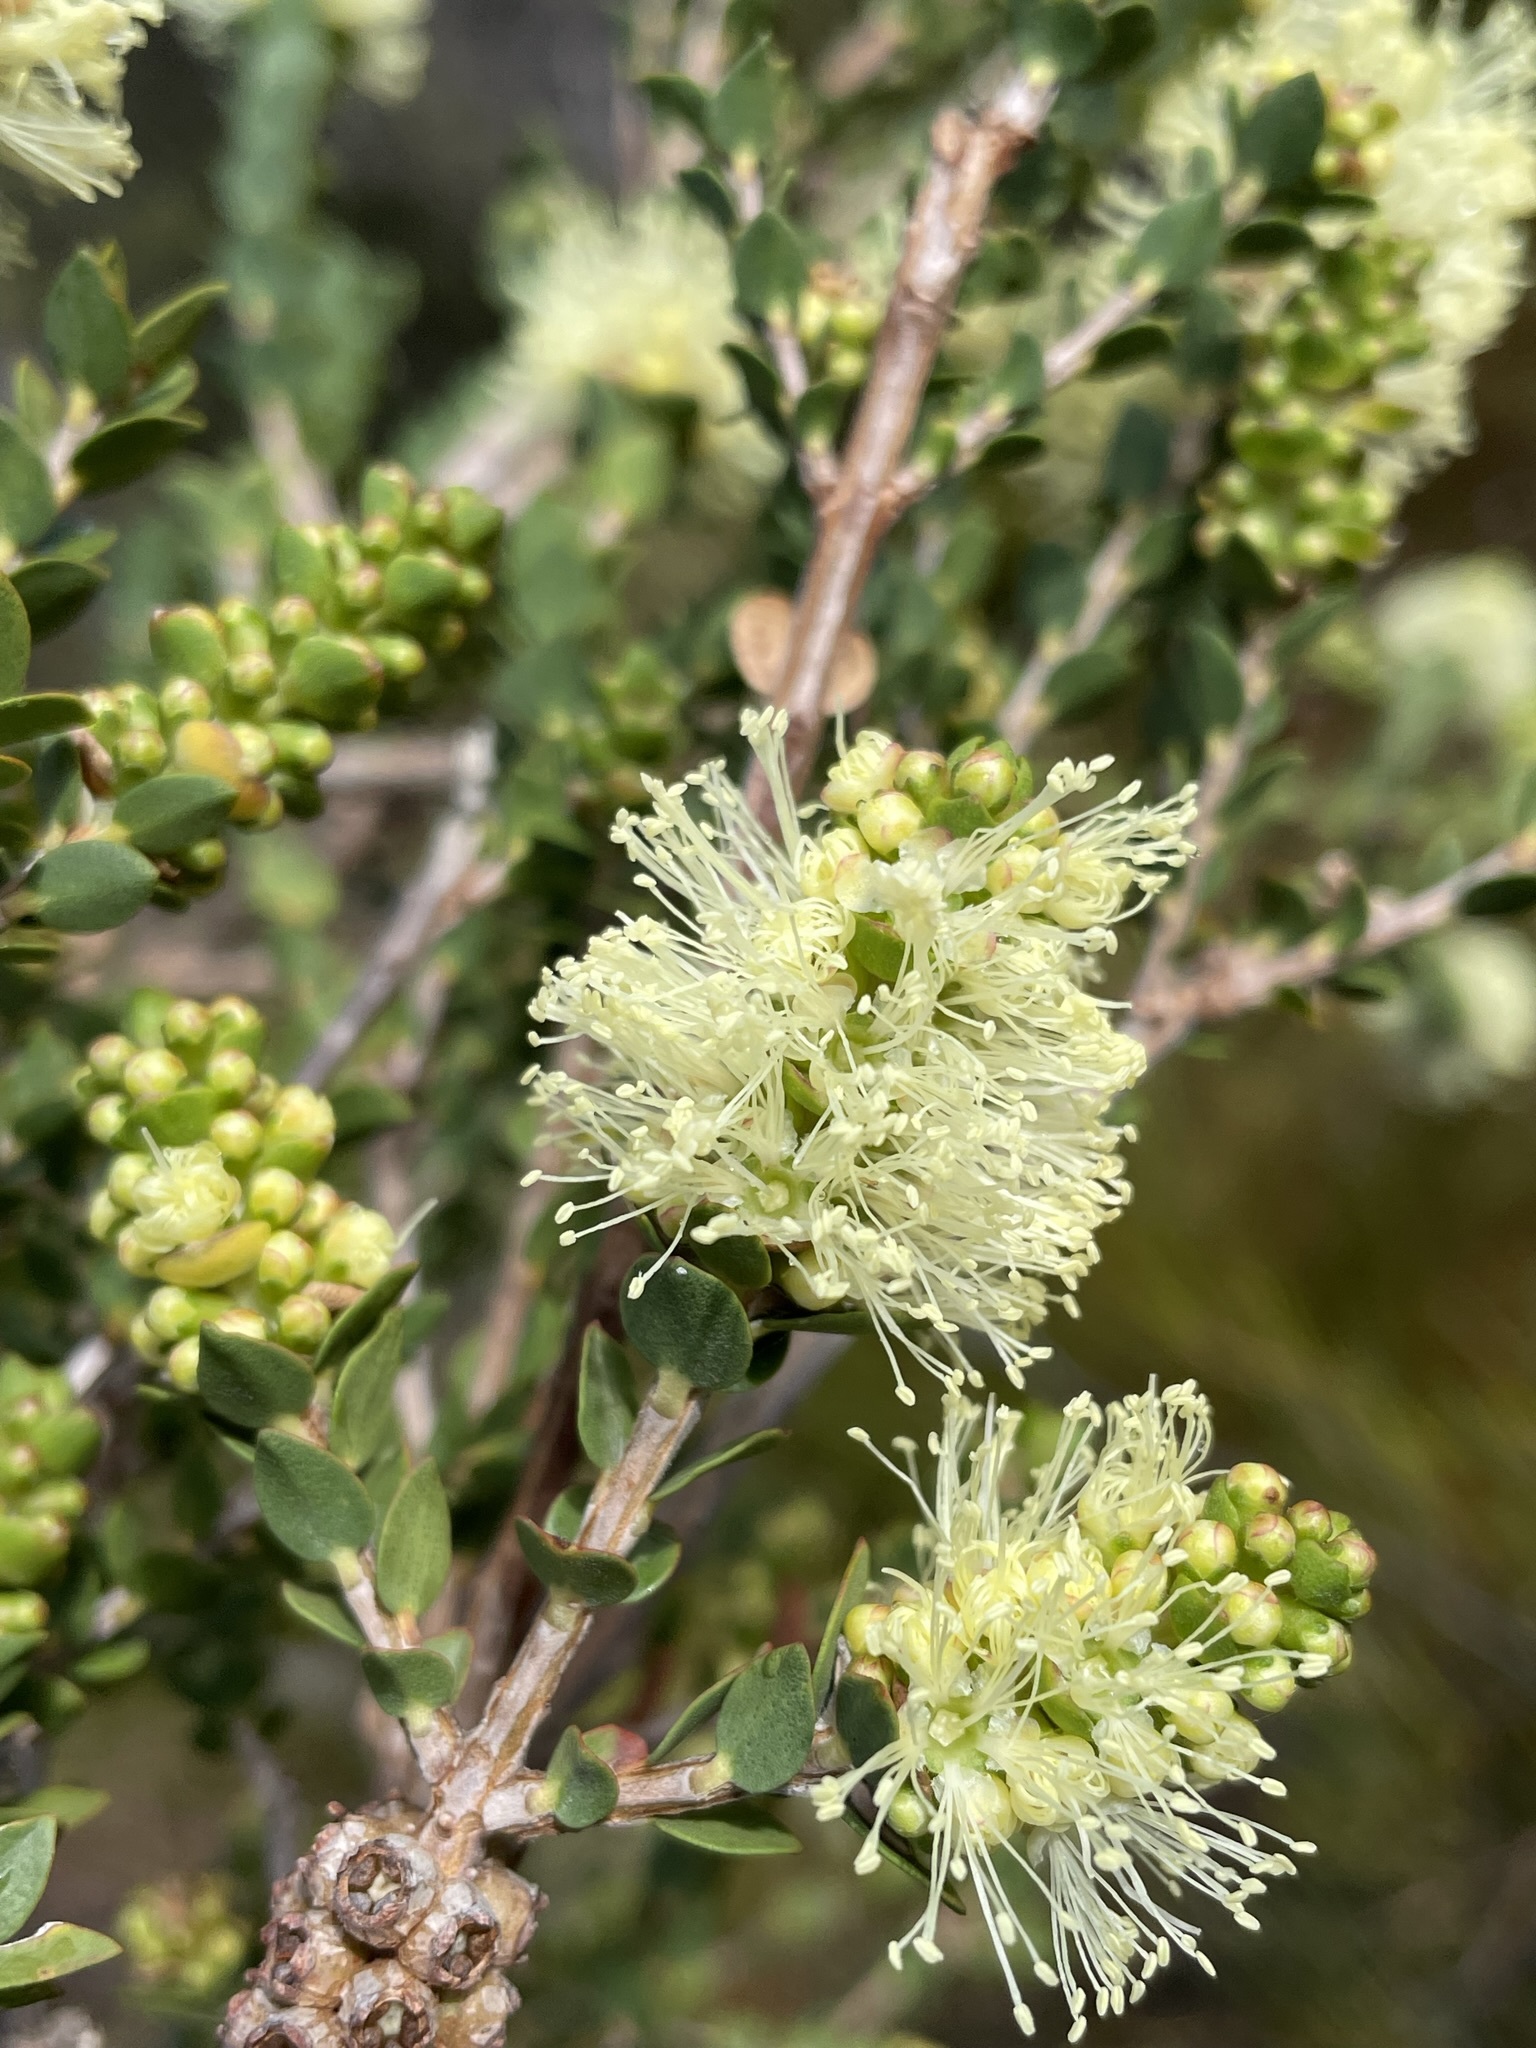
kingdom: Plantae
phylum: Tracheophyta
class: Magnoliopsida
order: Myrtales
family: Myrtaceae
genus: Melaleuca
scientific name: Melaleuca squarrosa
